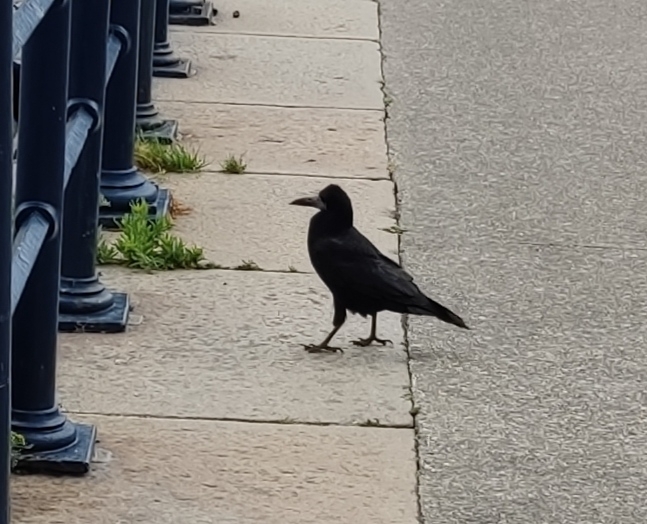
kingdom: Animalia
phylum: Chordata
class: Aves
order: Passeriformes
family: Corvidae
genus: Corvus
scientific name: Corvus frugilegus
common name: Rook
